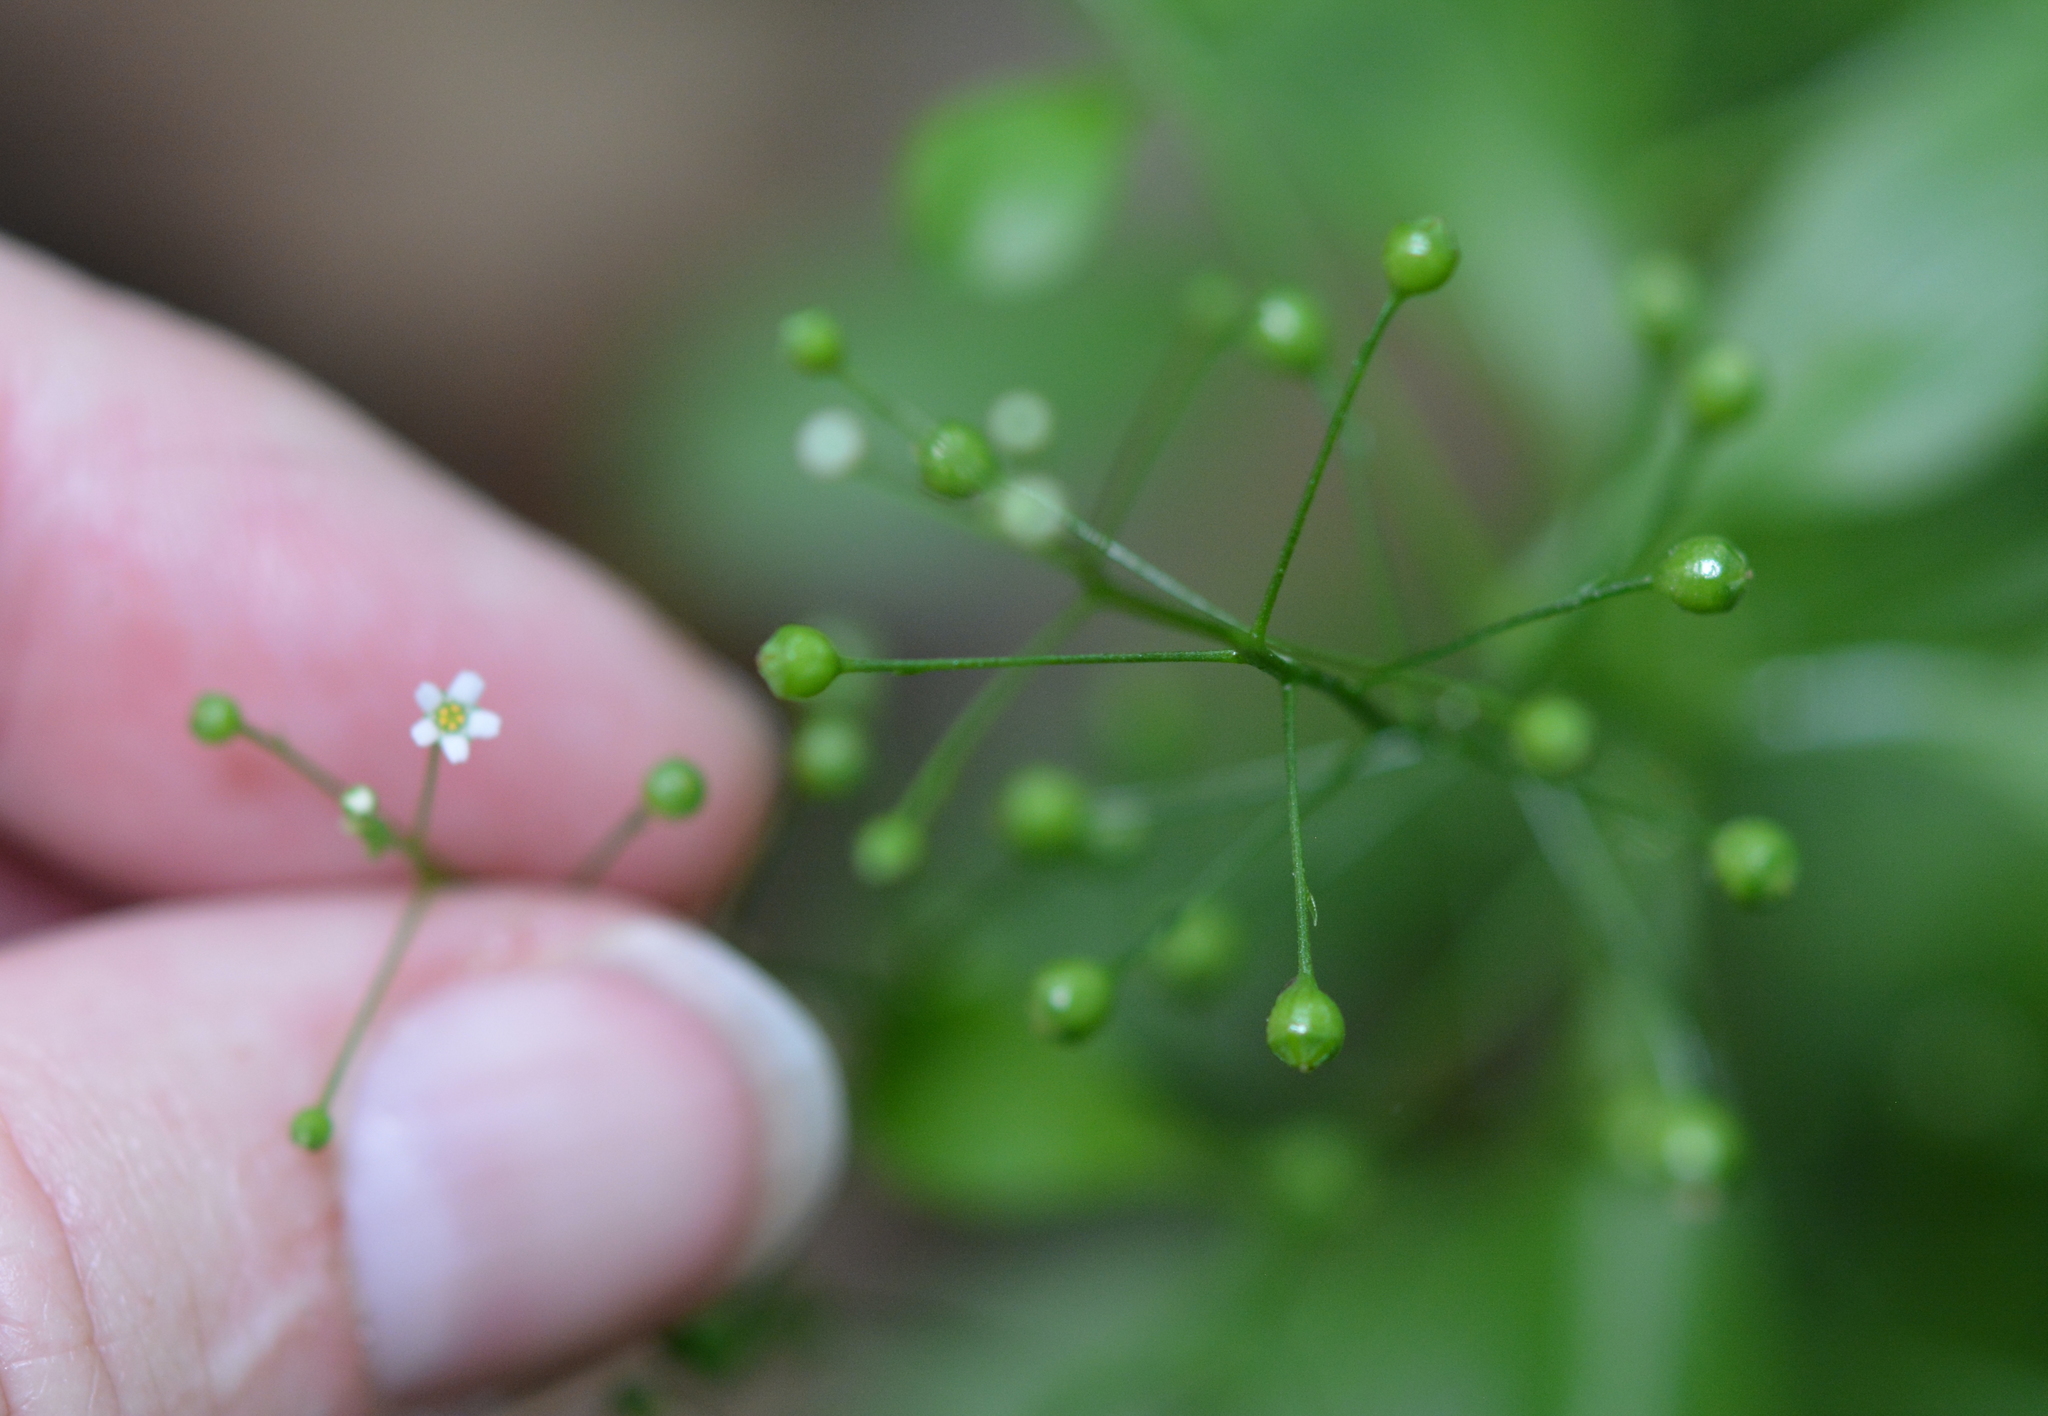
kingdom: Plantae
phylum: Tracheophyta
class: Magnoliopsida
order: Ericales
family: Primulaceae
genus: Samolus
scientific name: Samolus parviflorus
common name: False water pimpernel
